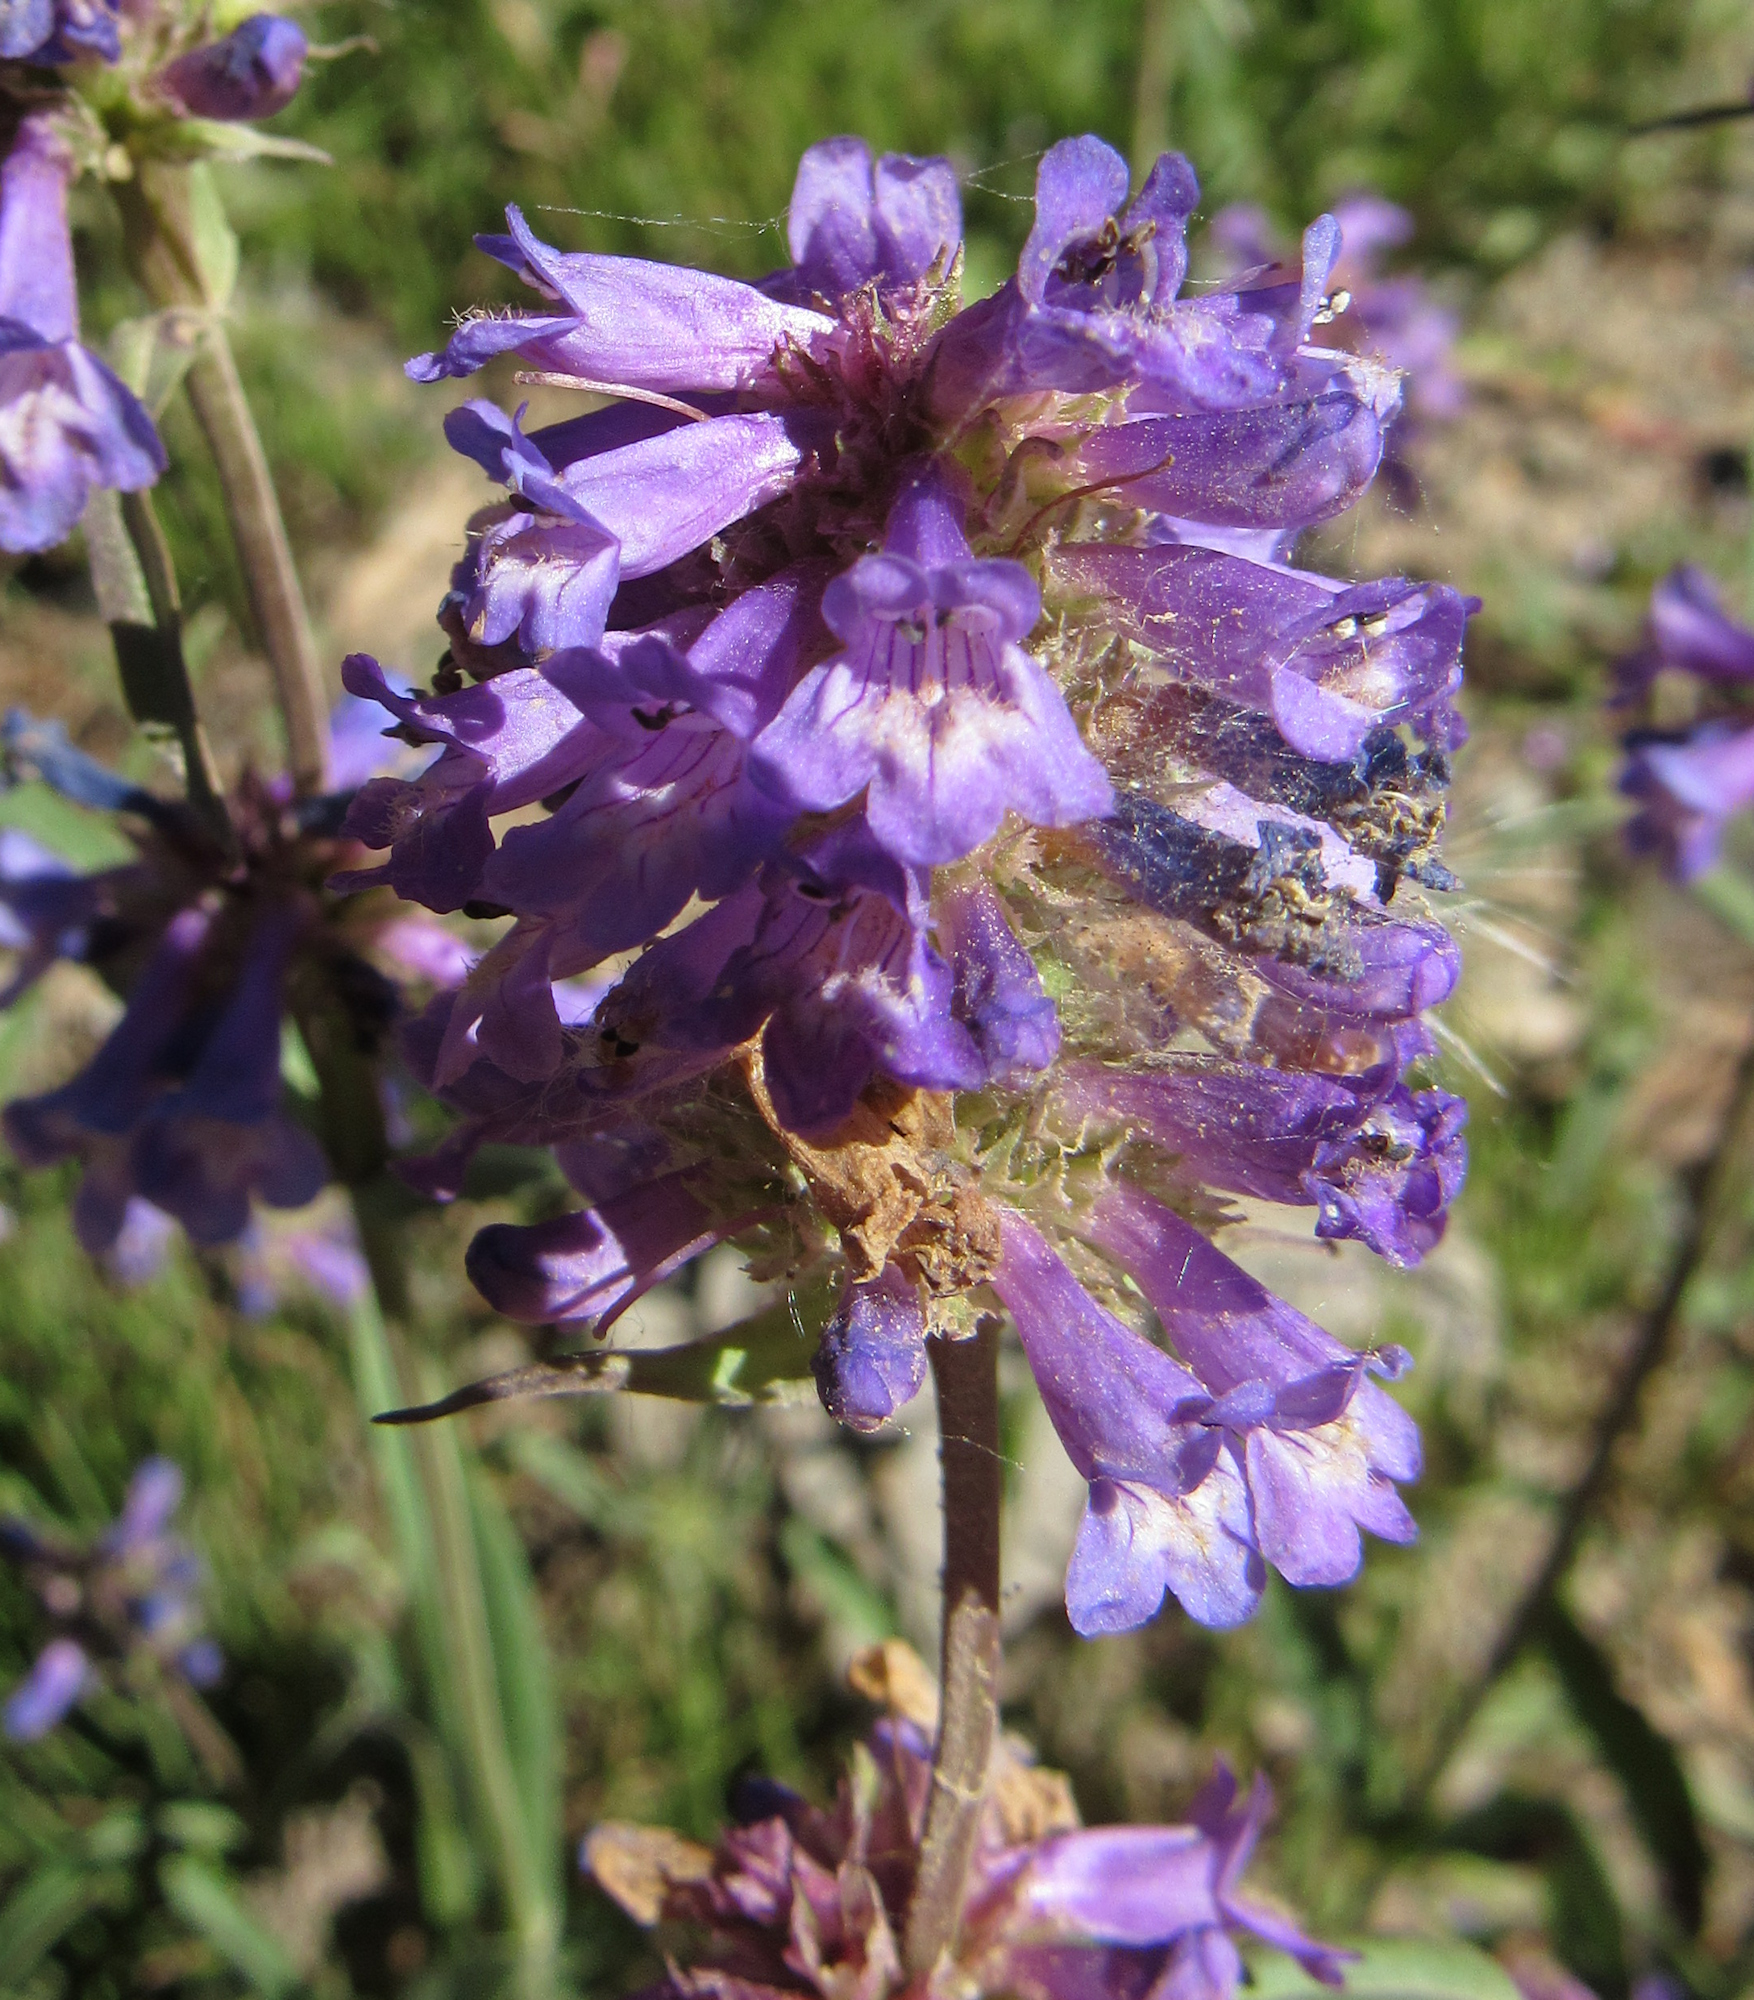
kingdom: Plantae
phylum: Tracheophyta
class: Magnoliopsida
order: Lamiales
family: Plantaginaceae
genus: Penstemon
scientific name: Penstemon procerus
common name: Small-flower penstemon
